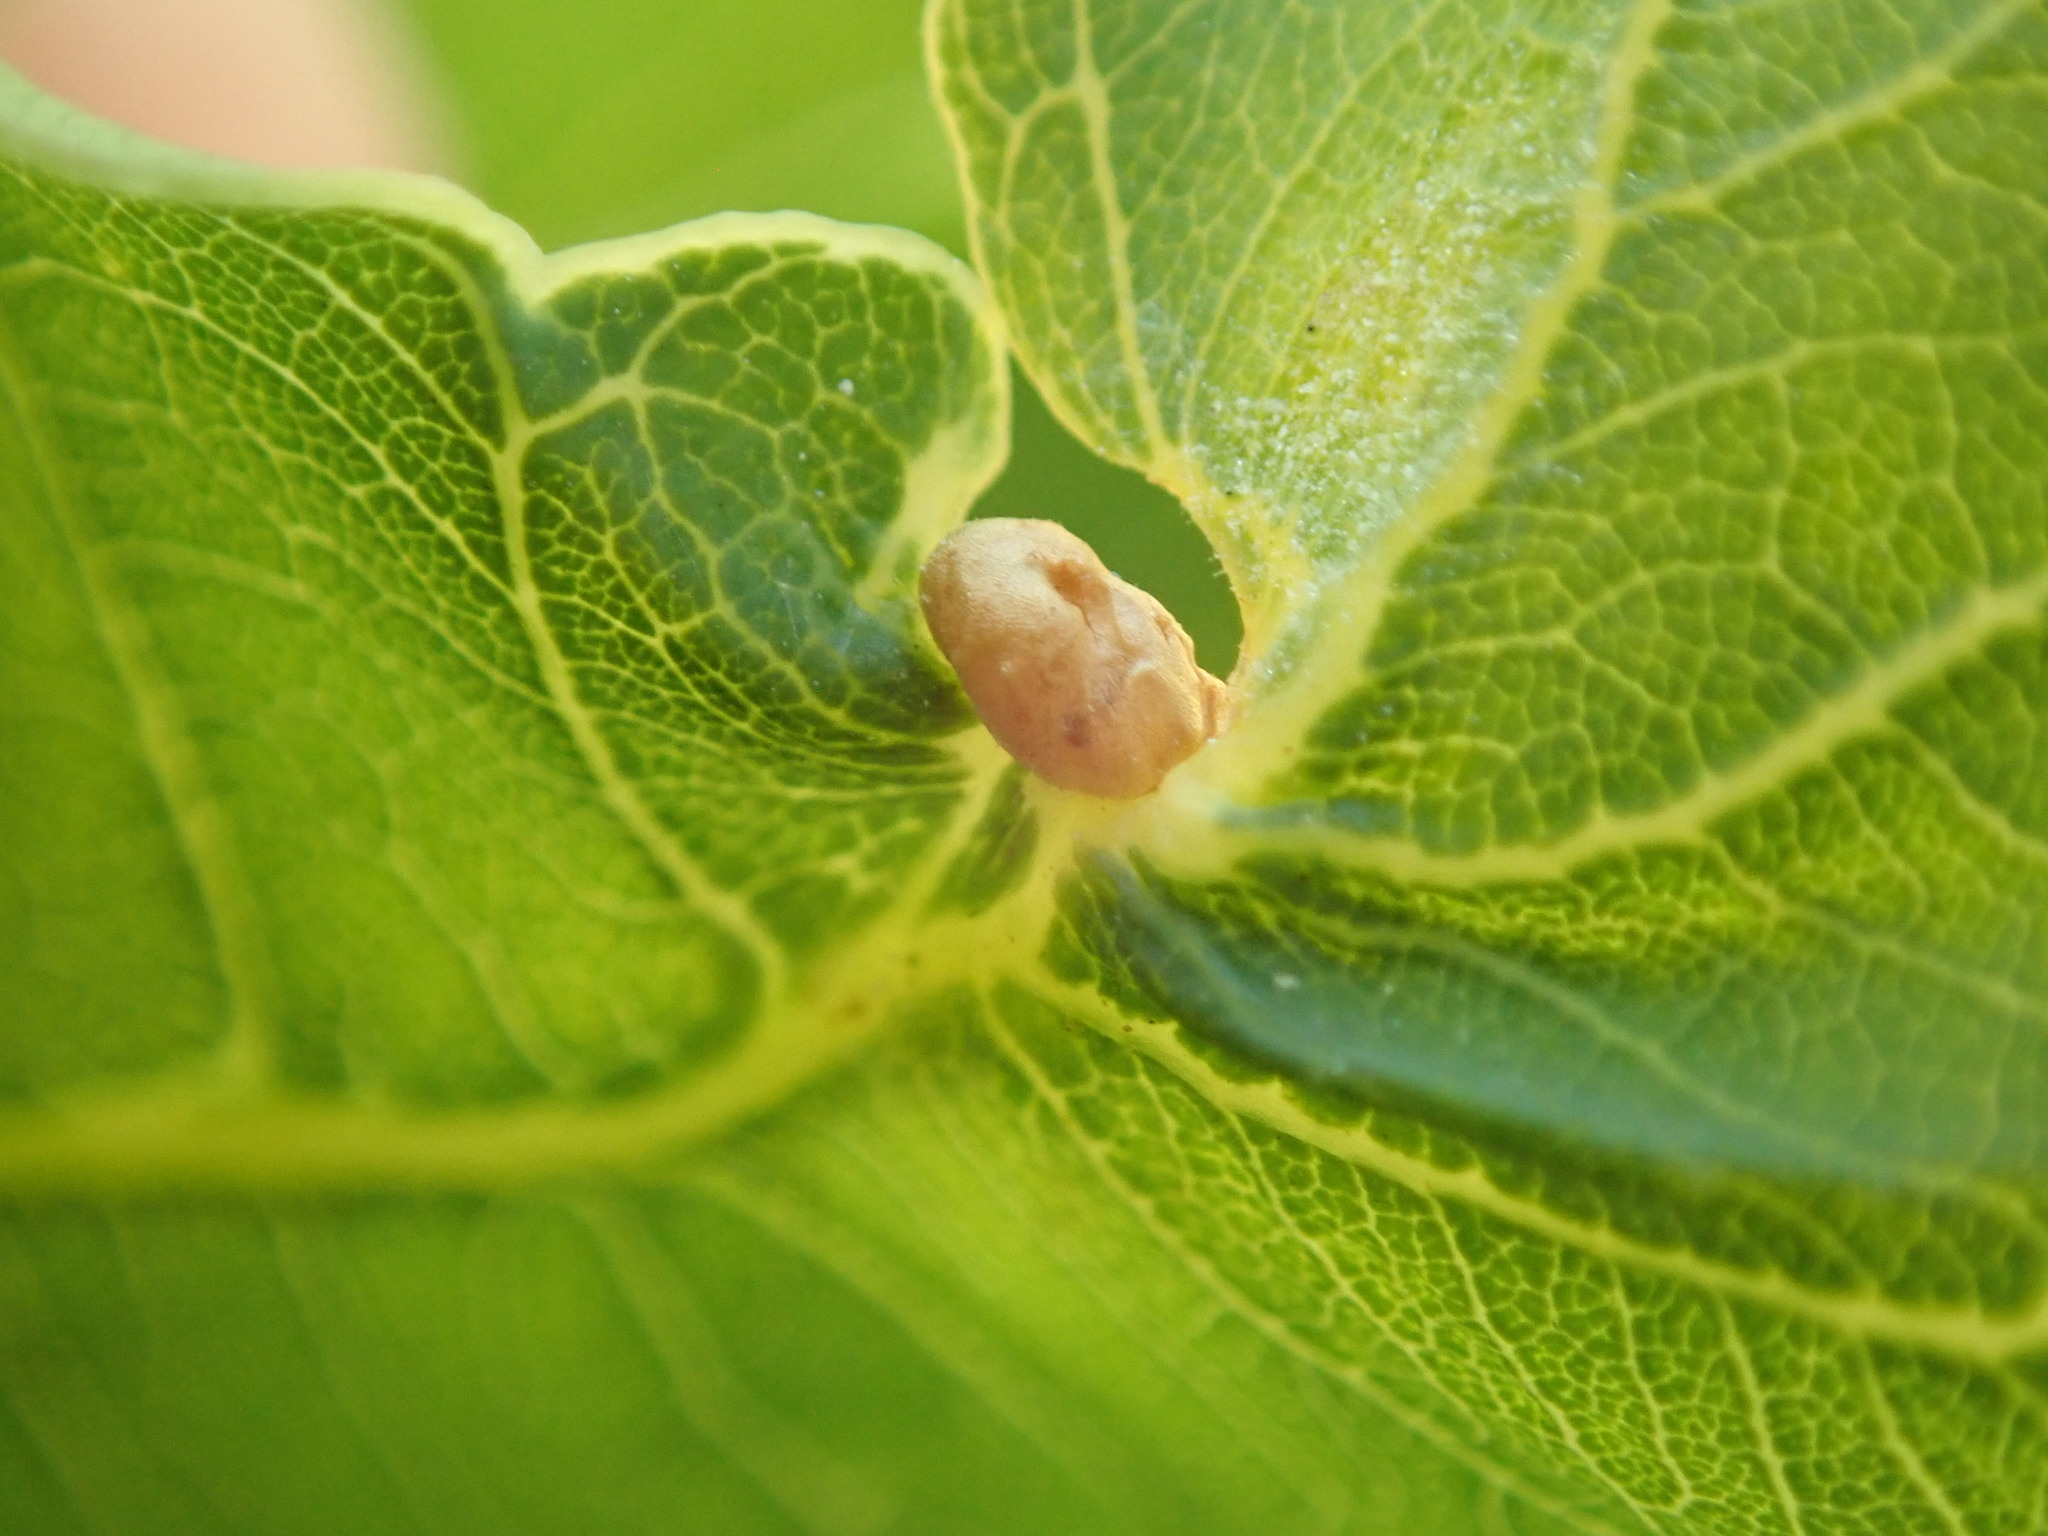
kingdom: Animalia
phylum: Arthropoda
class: Insecta
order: Hymenoptera
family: Cynipidae
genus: Neuroterus
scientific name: Neuroterus albipes
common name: Smooth spangle gall
